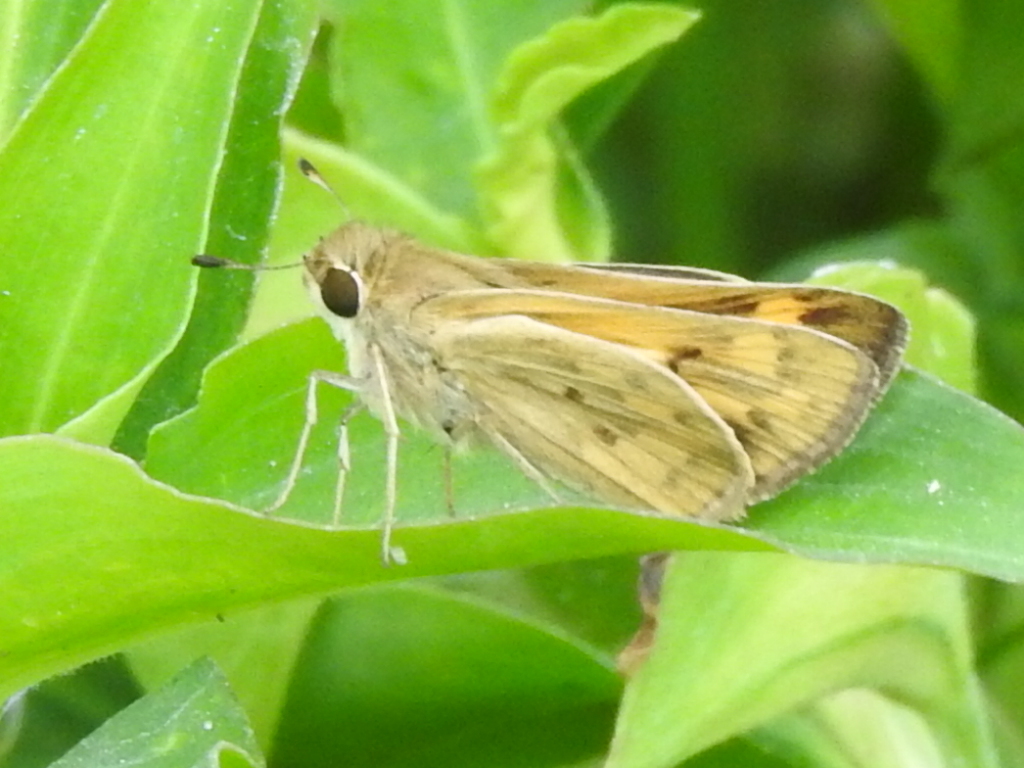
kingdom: Animalia
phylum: Arthropoda
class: Insecta
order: Lepidoptera
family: Hesperiidae
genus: Hylephila
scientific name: Hylephila phyleus
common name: Fiery skipper
